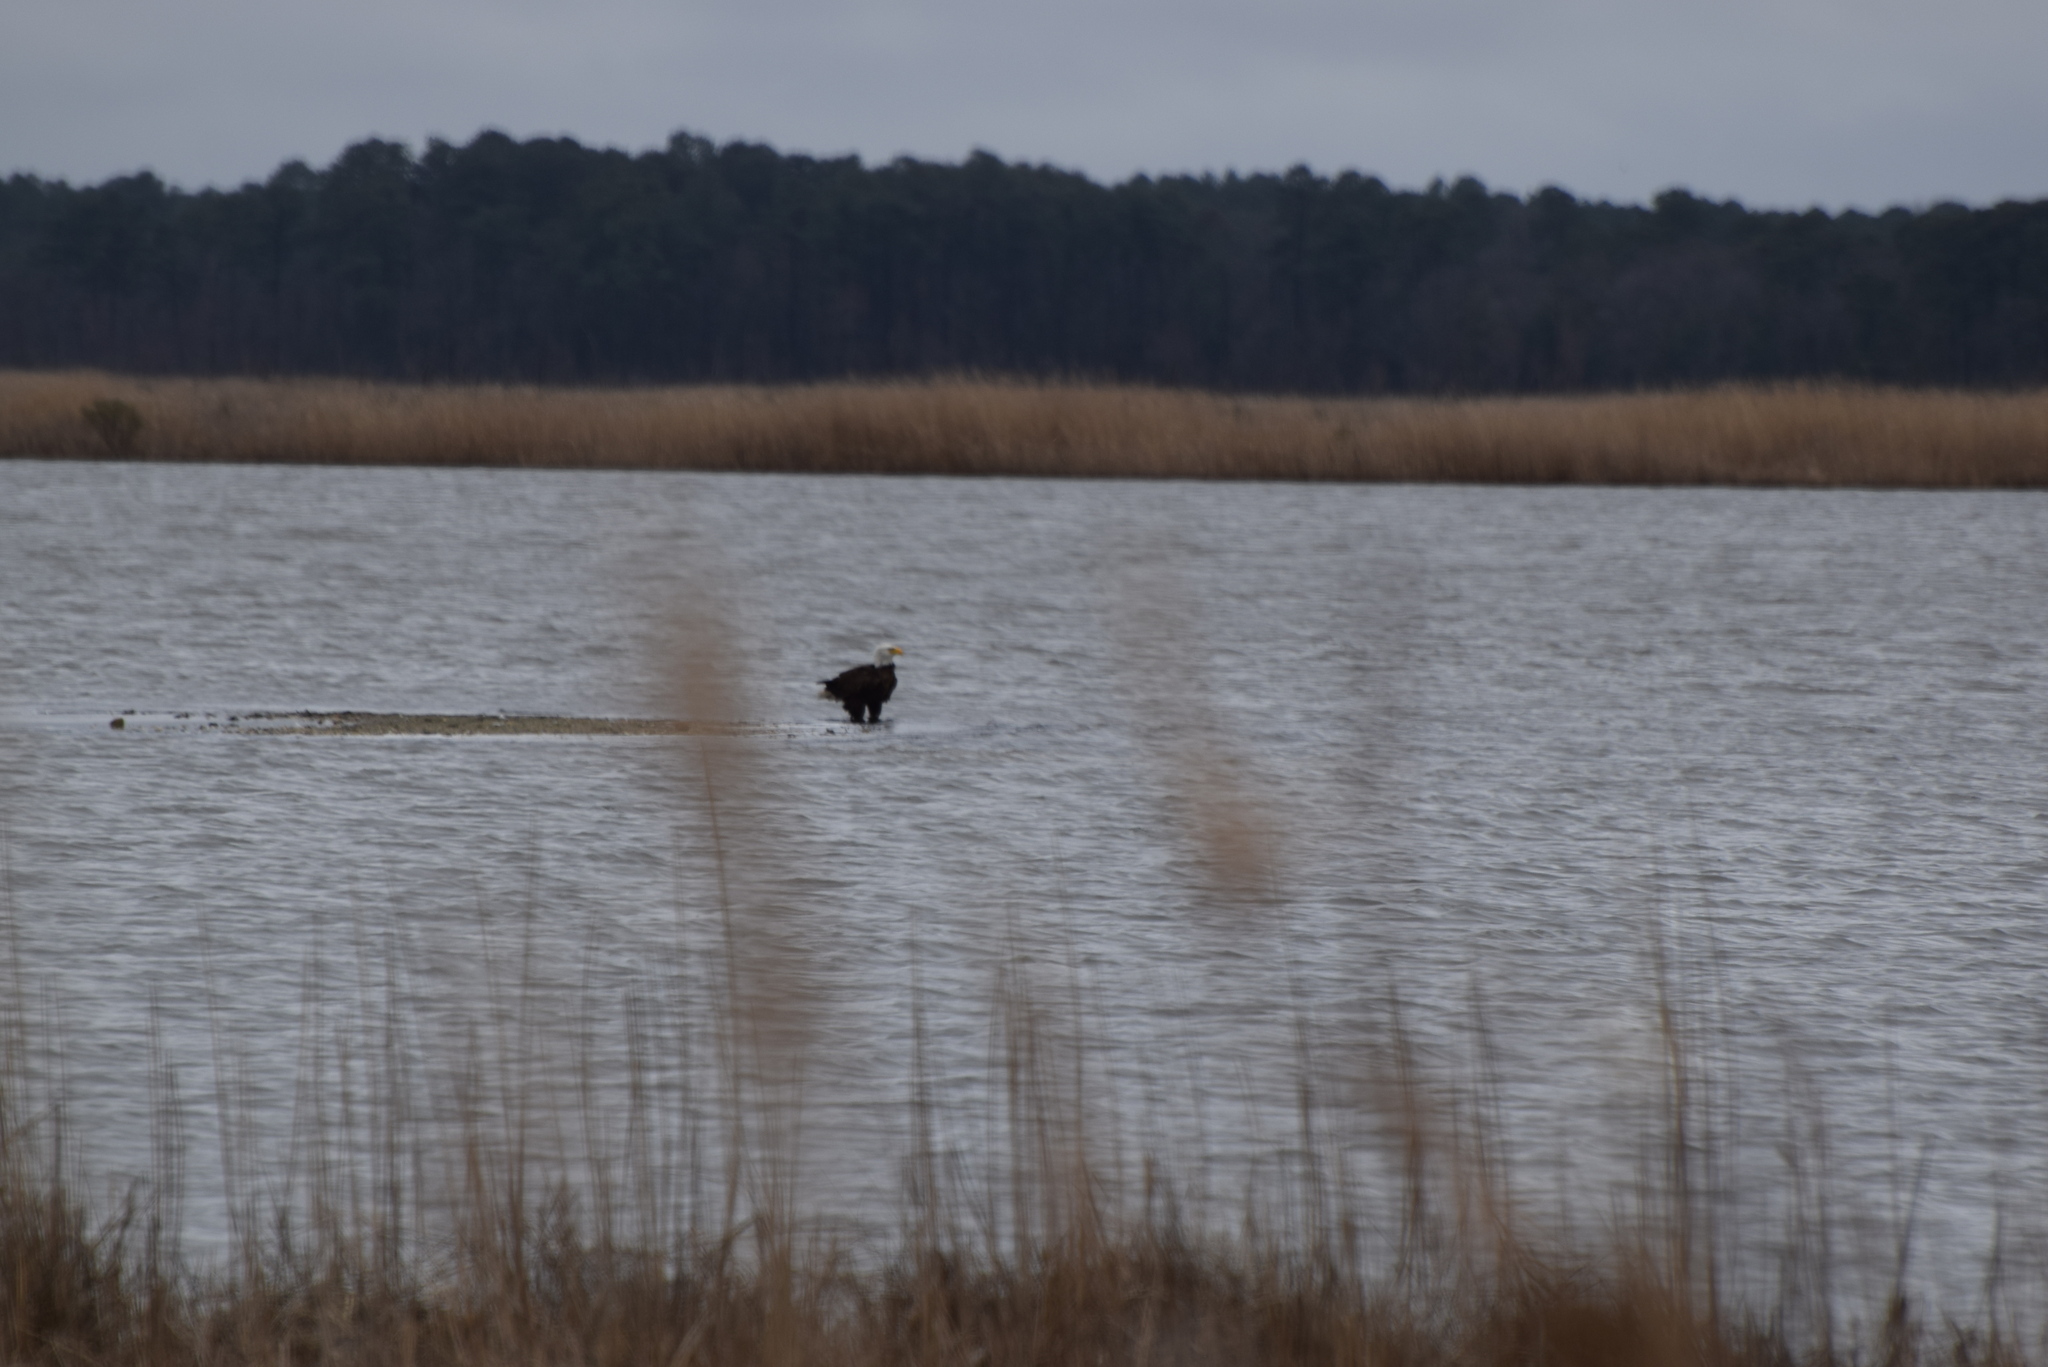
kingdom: Animalia
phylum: Chordata
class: Aves
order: Accipitriformes
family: Accipitridae
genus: Haliaeetus
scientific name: Haliaeetus leucocephalus
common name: Bald eagle
